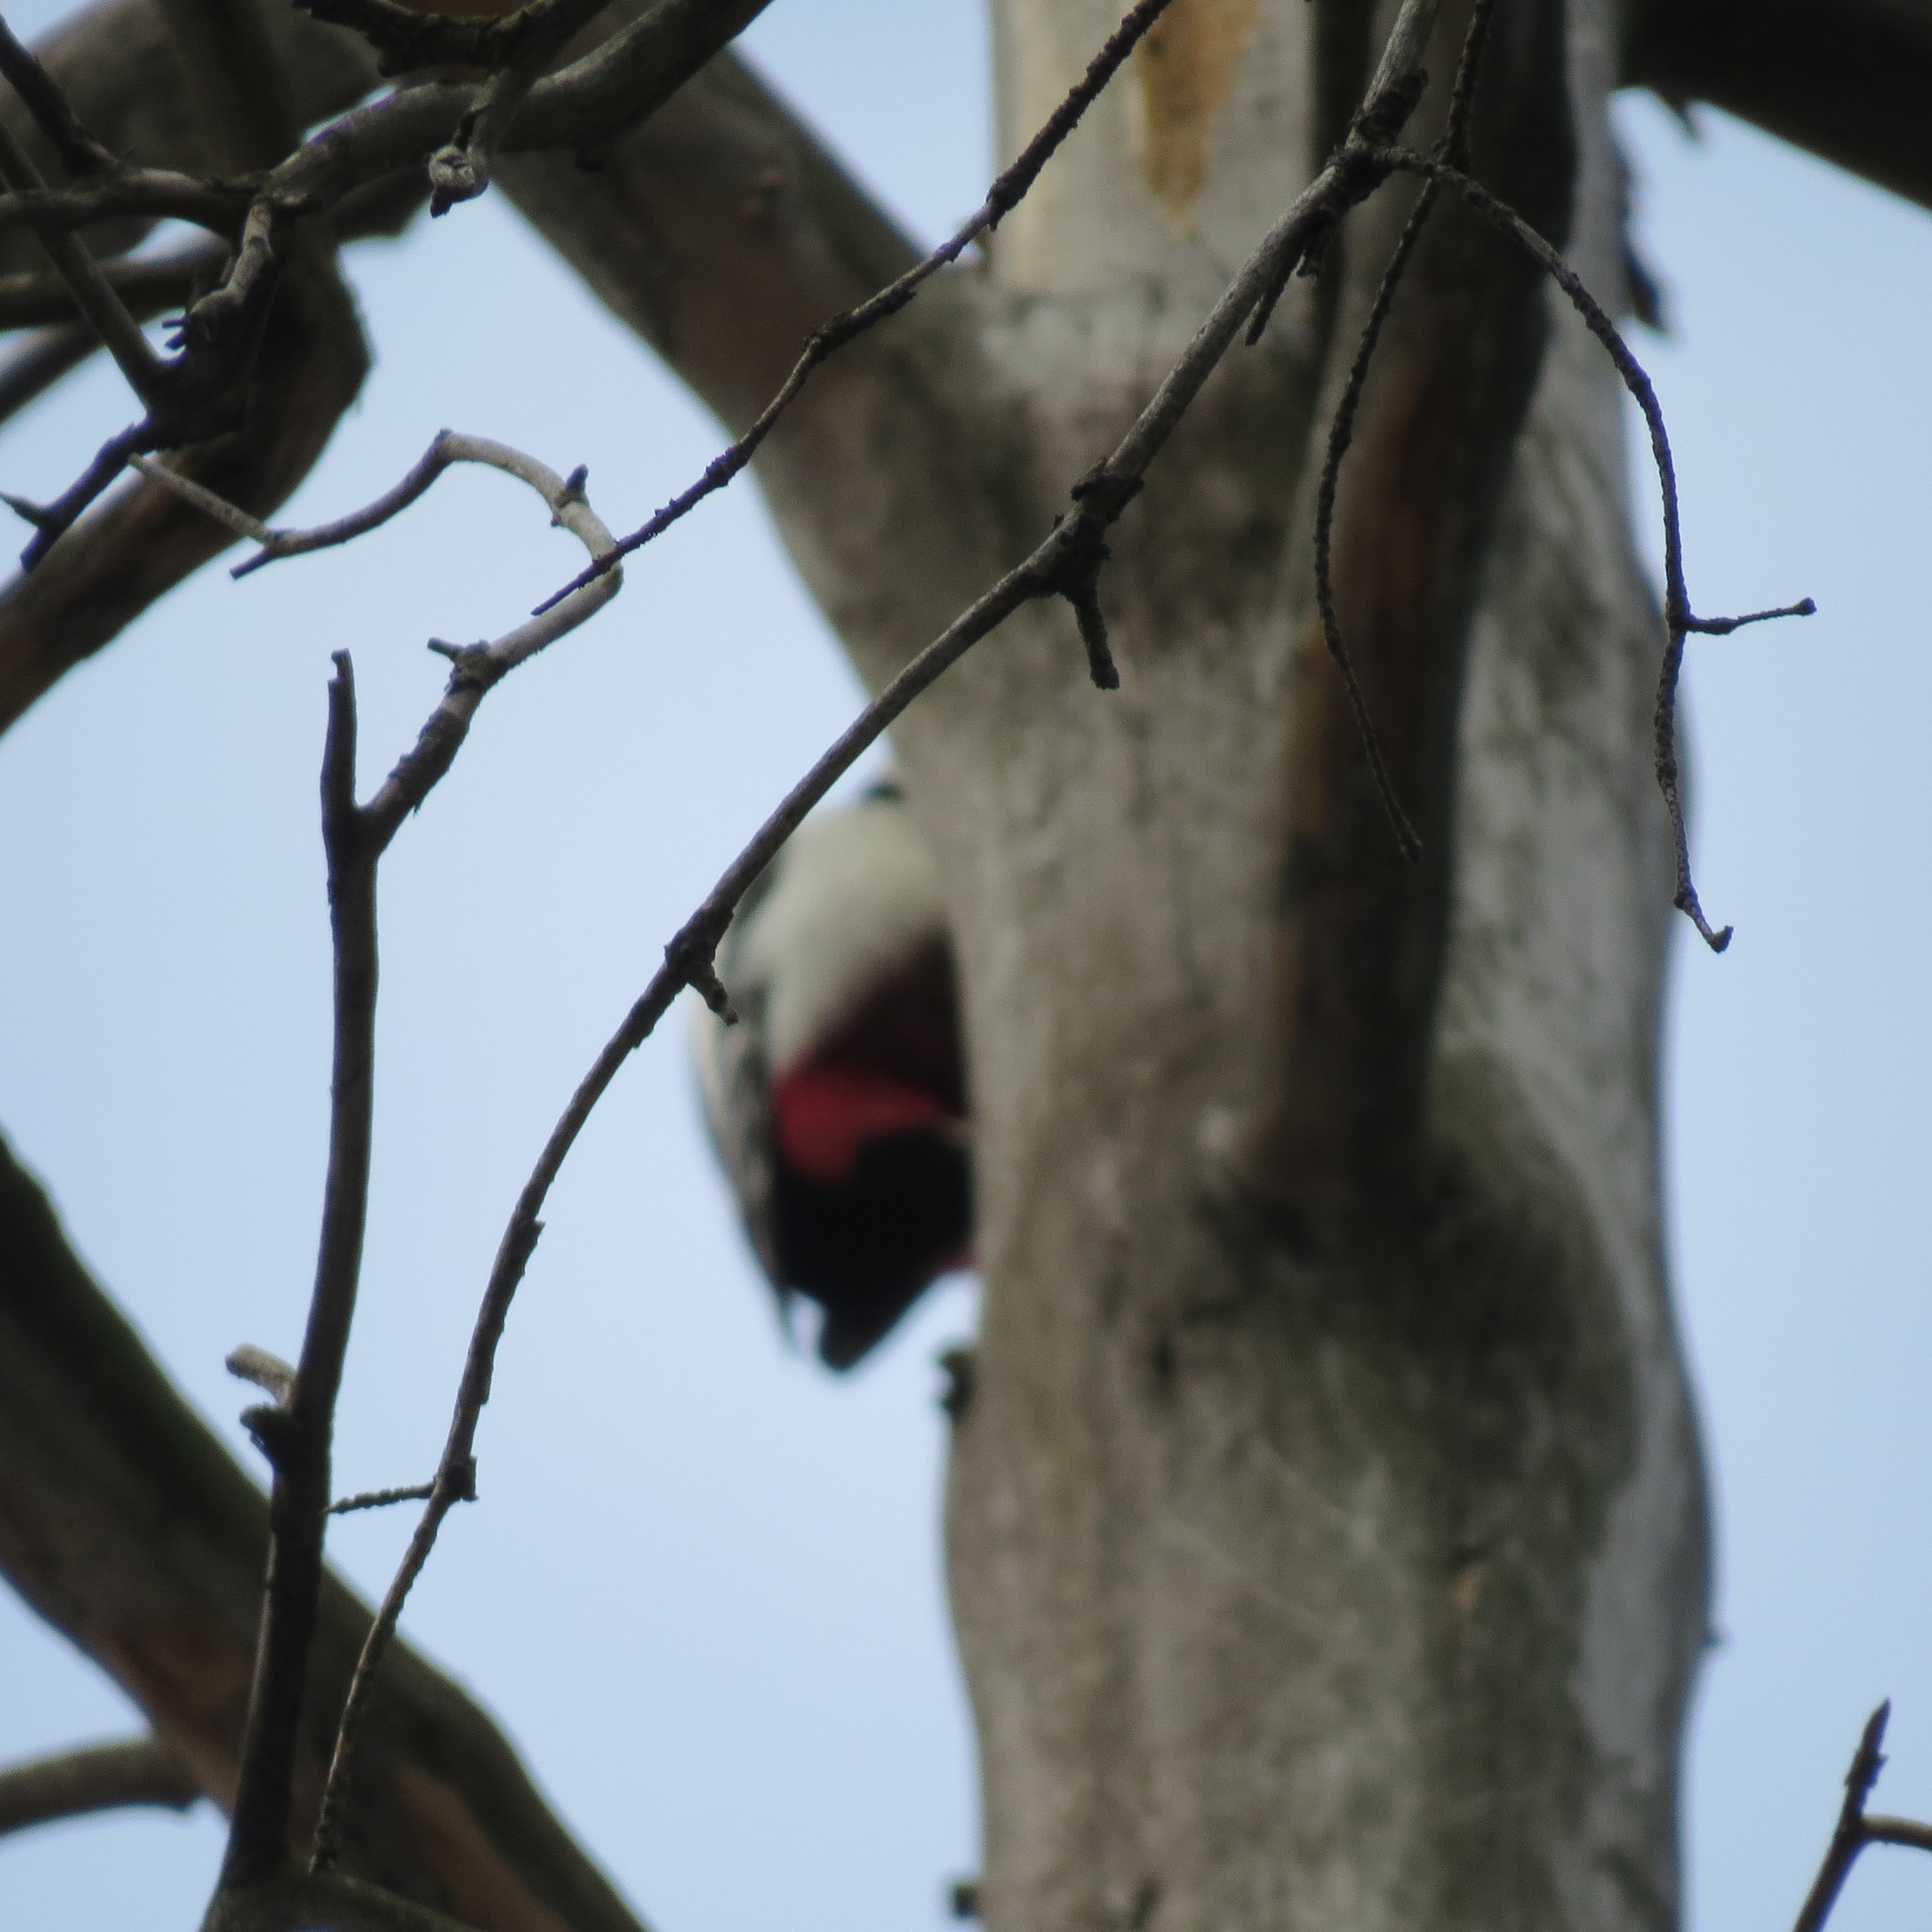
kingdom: Animalia
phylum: Chordata
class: Aves
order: Piciformes
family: Picidae
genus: Dendrocopos
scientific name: Dendrocopos major
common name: Great spotted woodpecker
